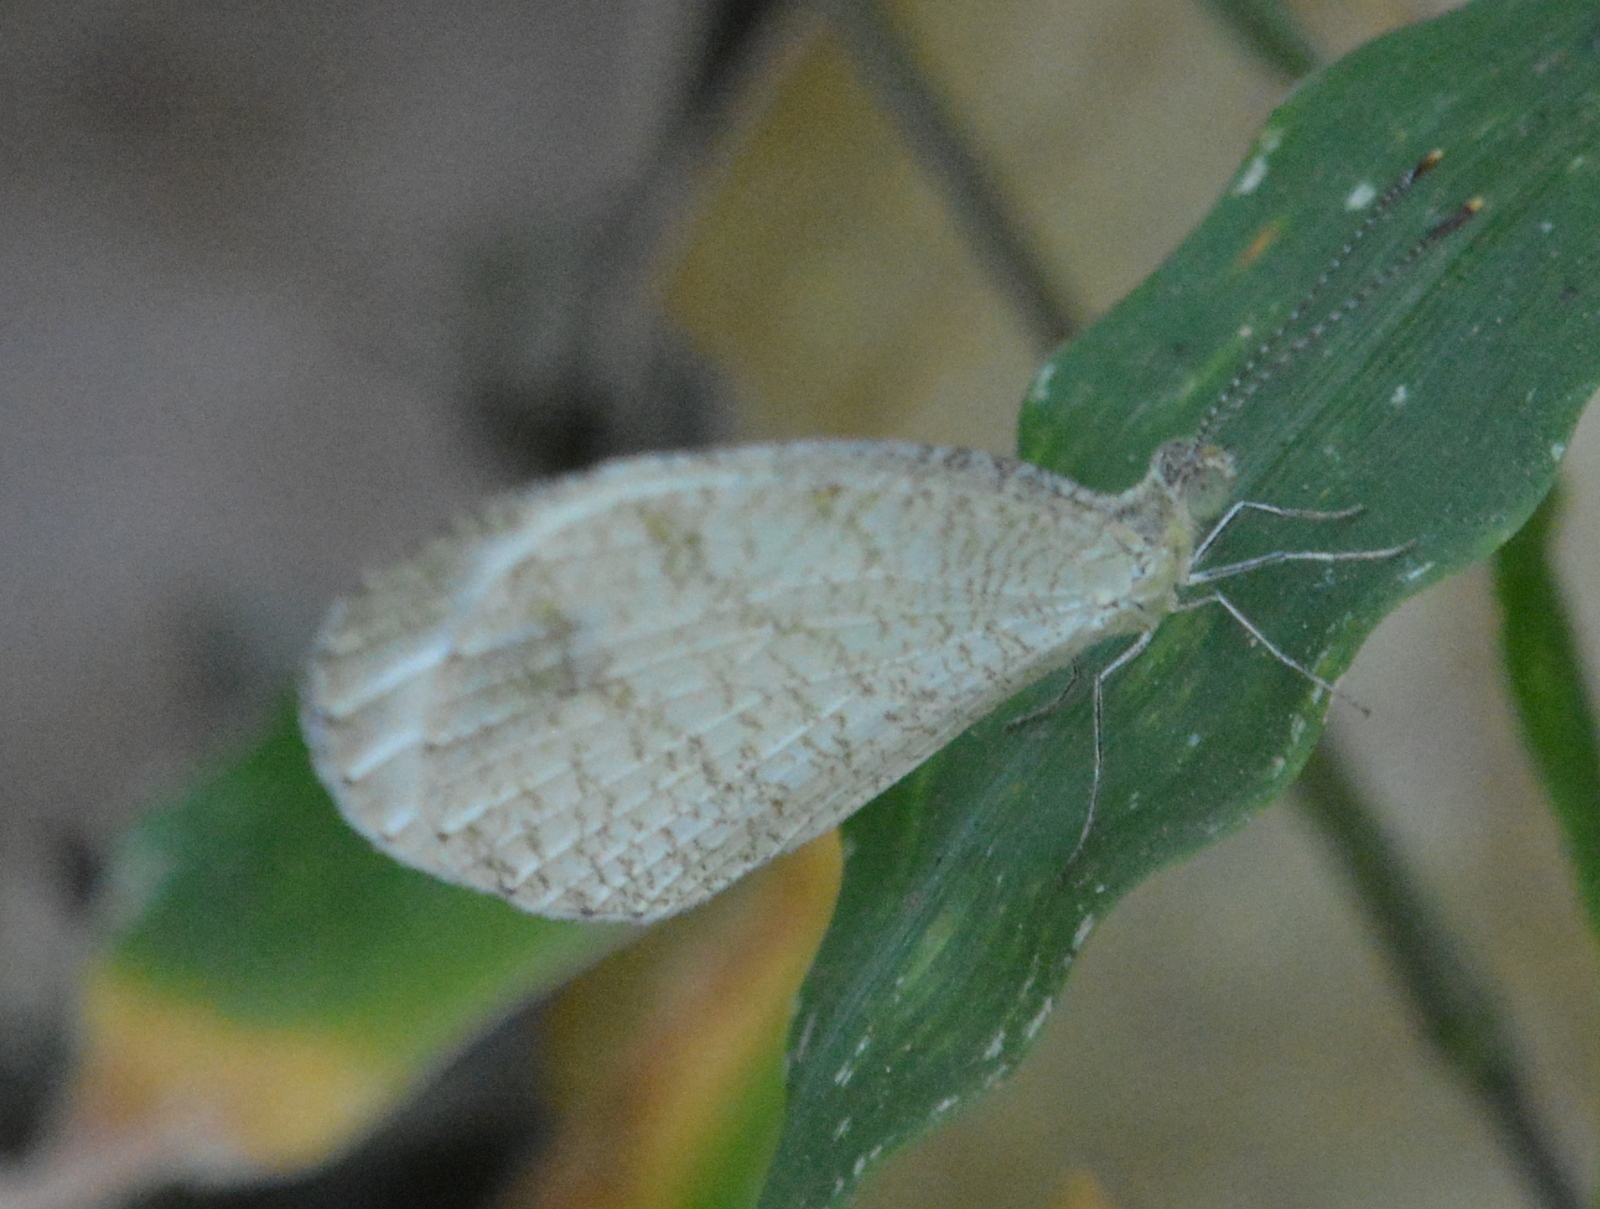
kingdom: Animalia
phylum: Arthropoda
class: Insecta
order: Lepidoptera
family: Pieridae
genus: Leptosia
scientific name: Leptosia nina
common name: Psyche
